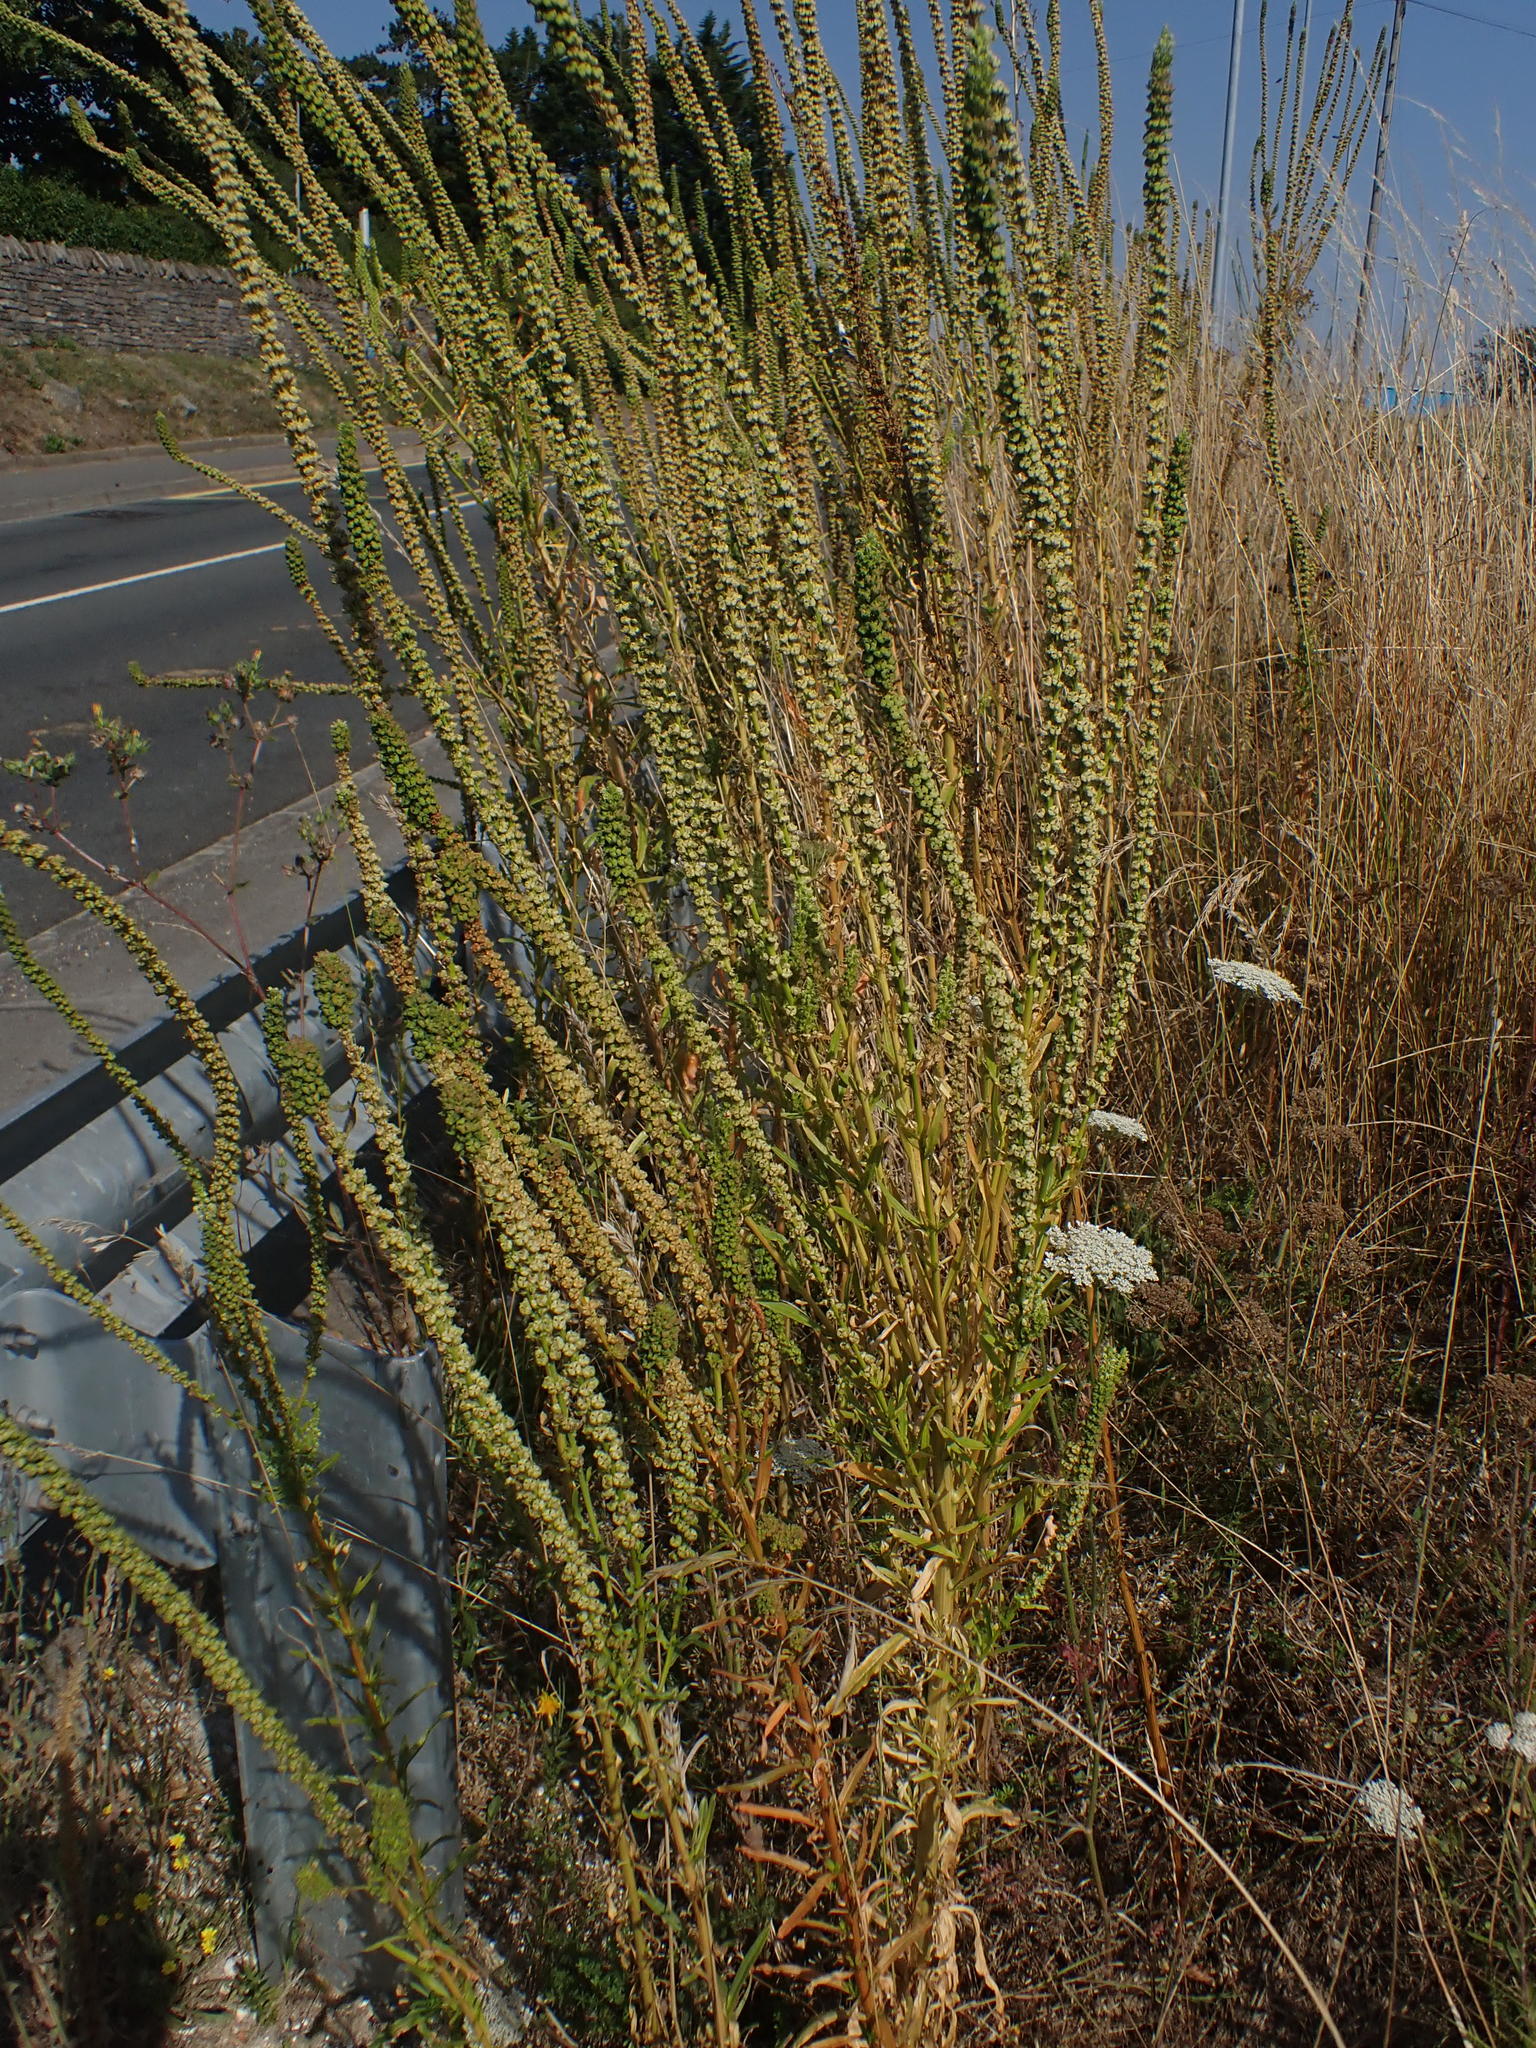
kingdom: Plantae
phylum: Tracheophyta
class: Magnoliopsida
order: Brassicales
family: Resedaceae
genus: Reseda
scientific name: Reseda luteola
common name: Weld
